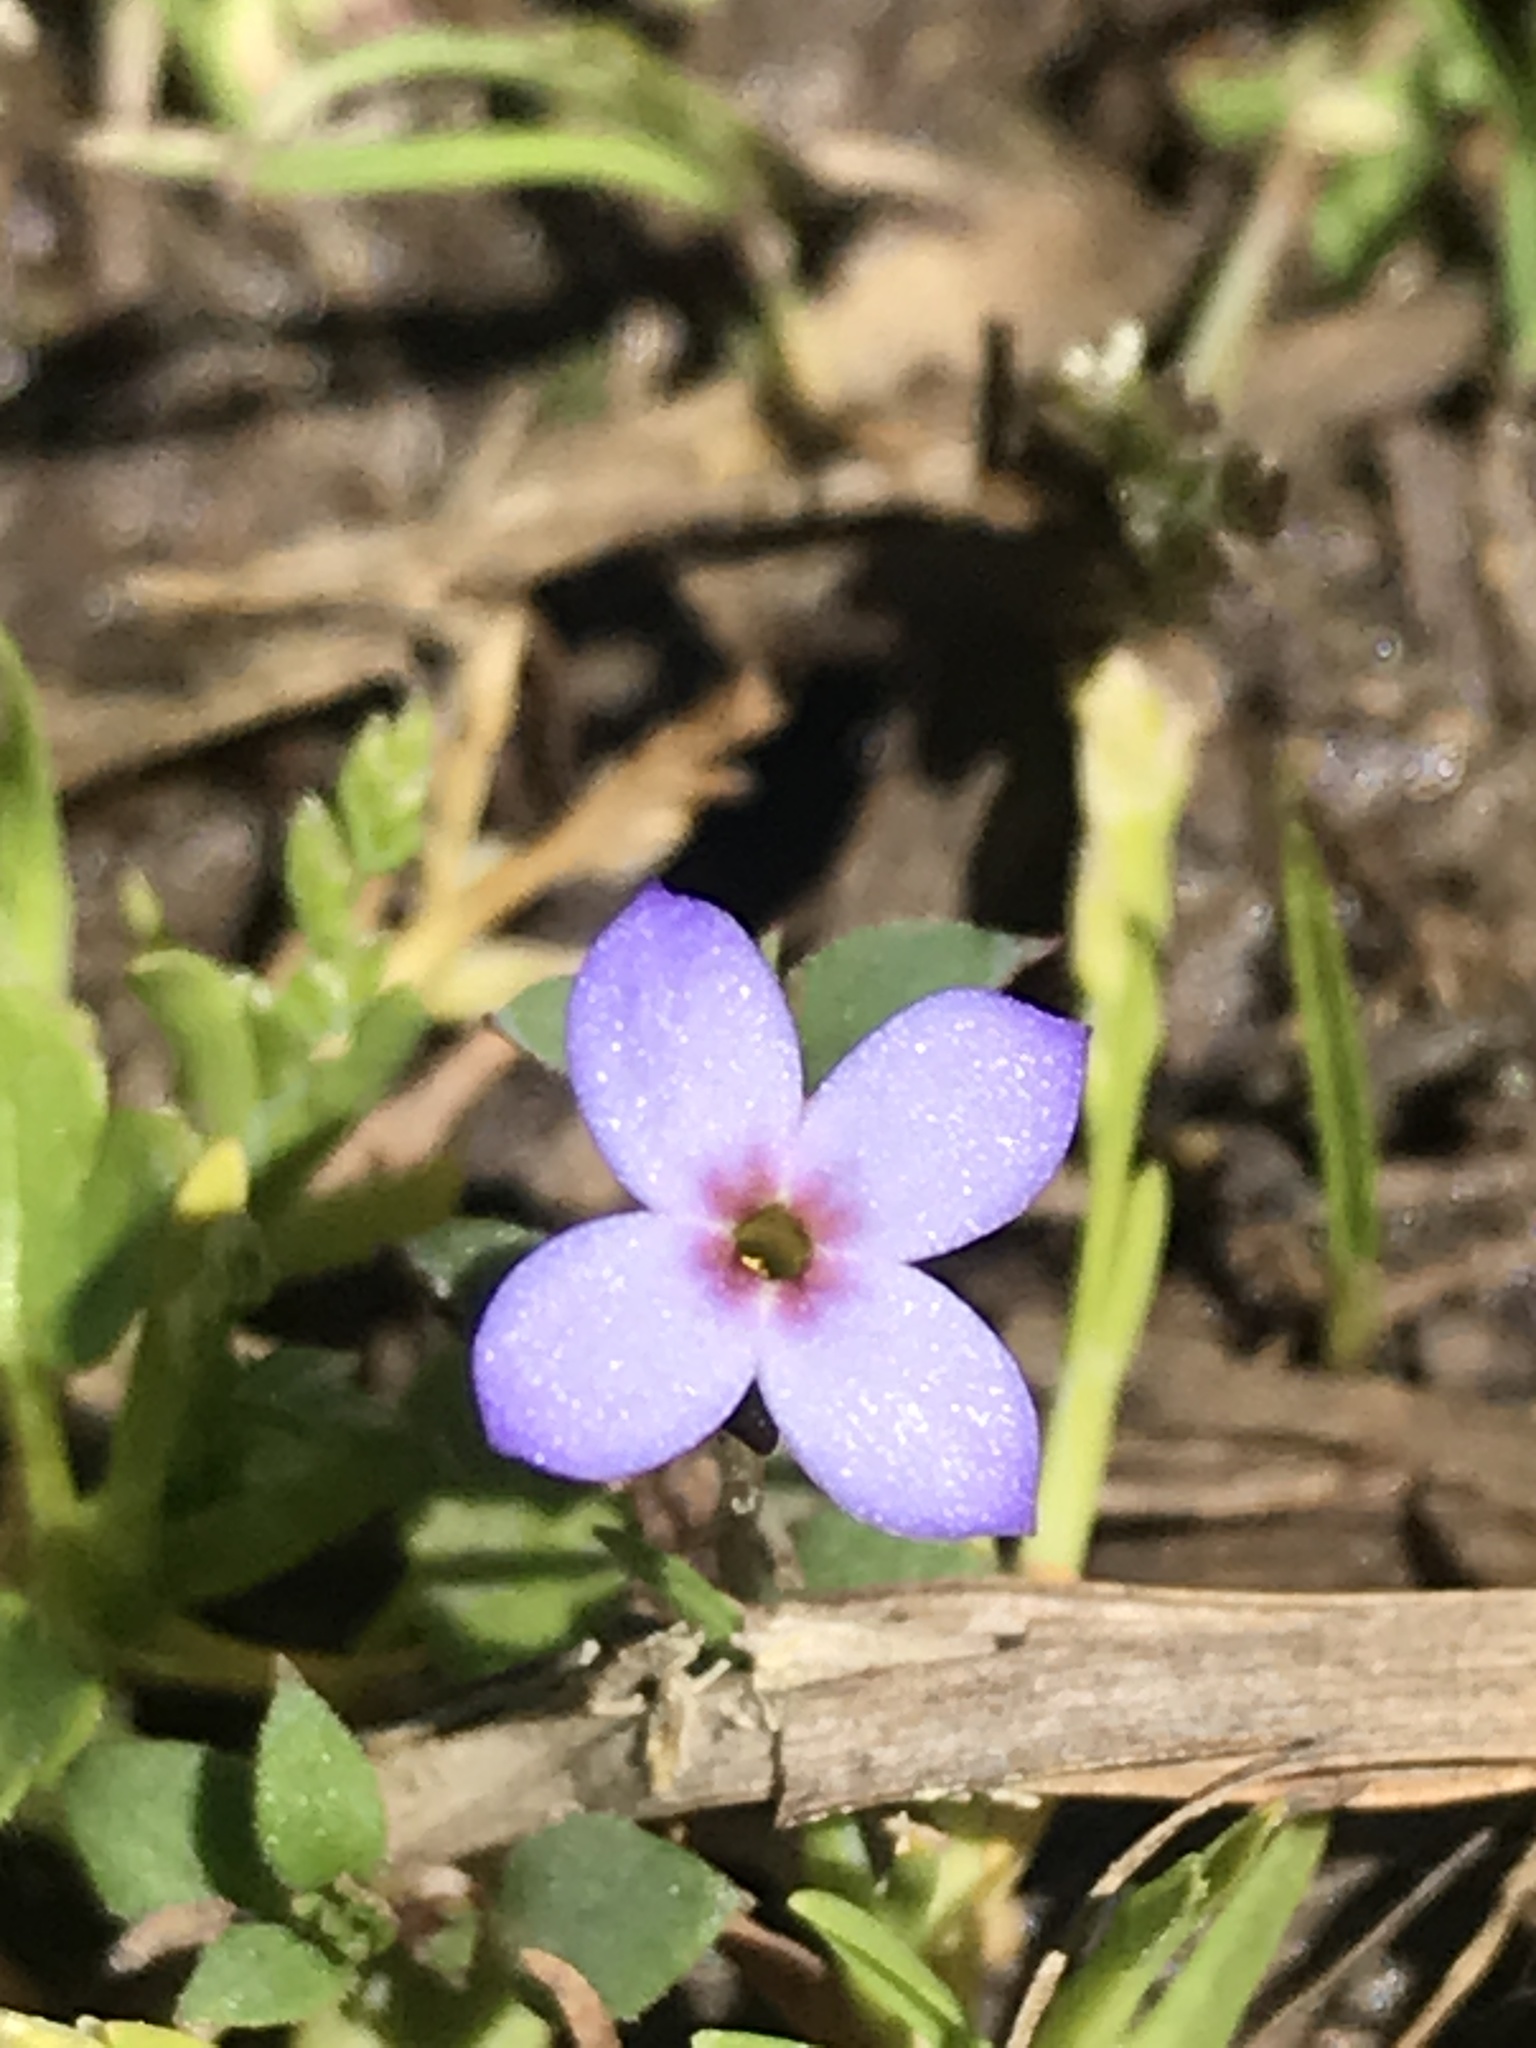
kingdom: Plantae
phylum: Tracheophyta
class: Magnoliopsida
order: Gentianales
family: Rubiaceae
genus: Houstonia
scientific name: Houstonia pusilla
